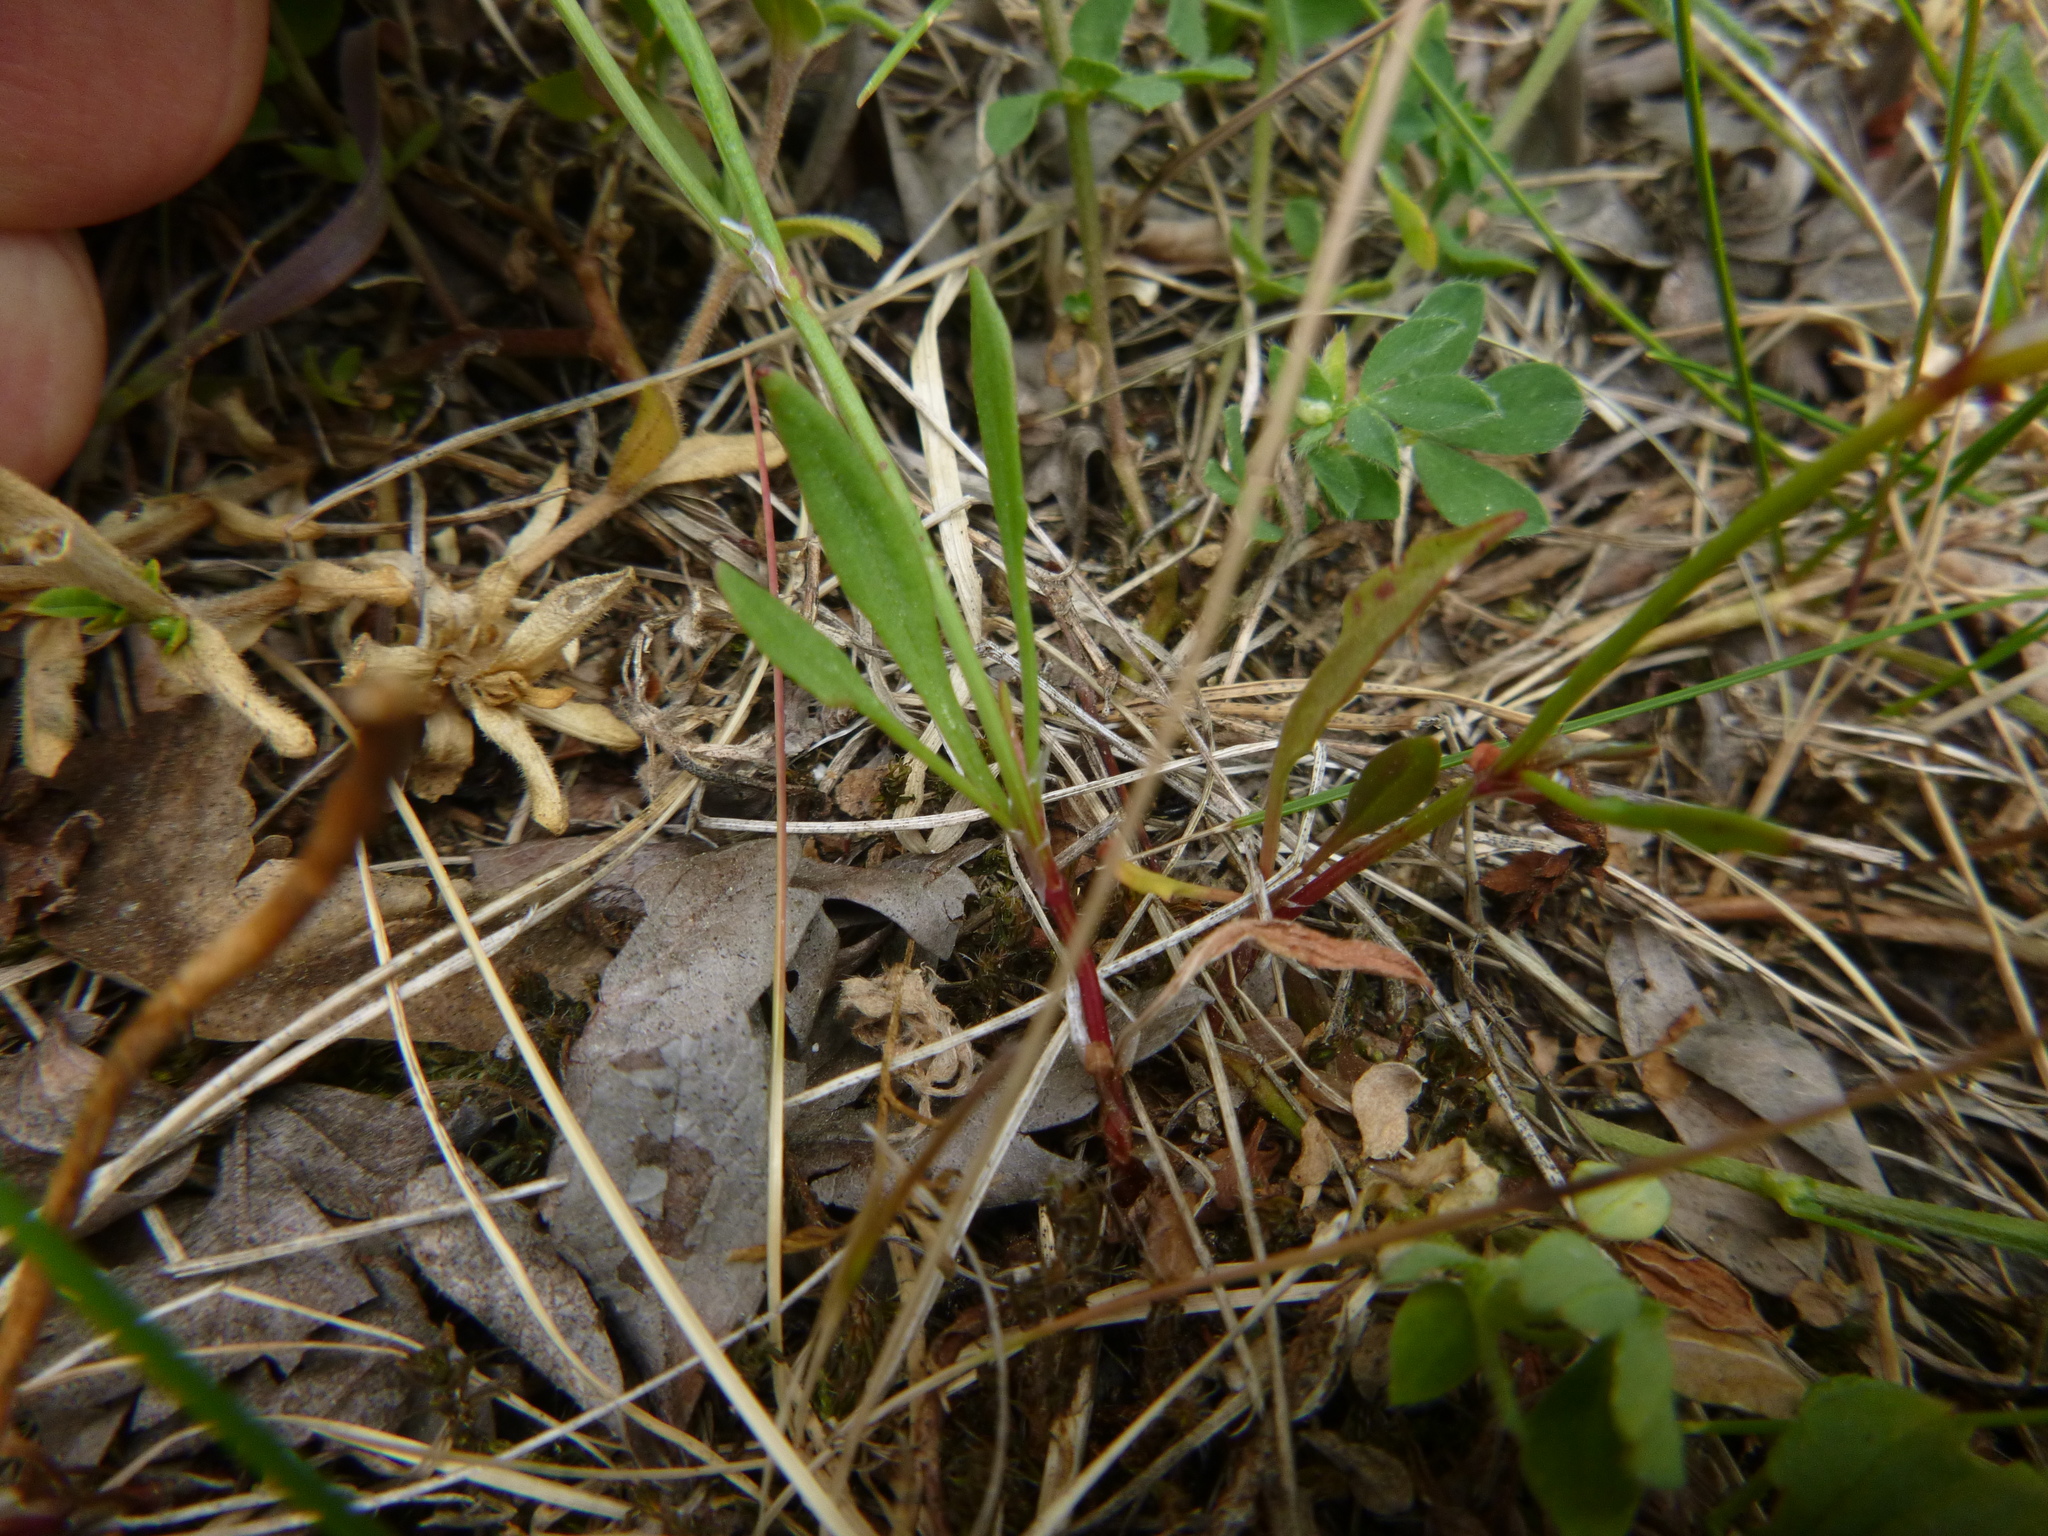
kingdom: Plantae
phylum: Tracheophyta
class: Magnoliopsida
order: Caryophyllales
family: Polygonaceae
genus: Rumex
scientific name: Rumex acetosella
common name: Common sheep sorrel
